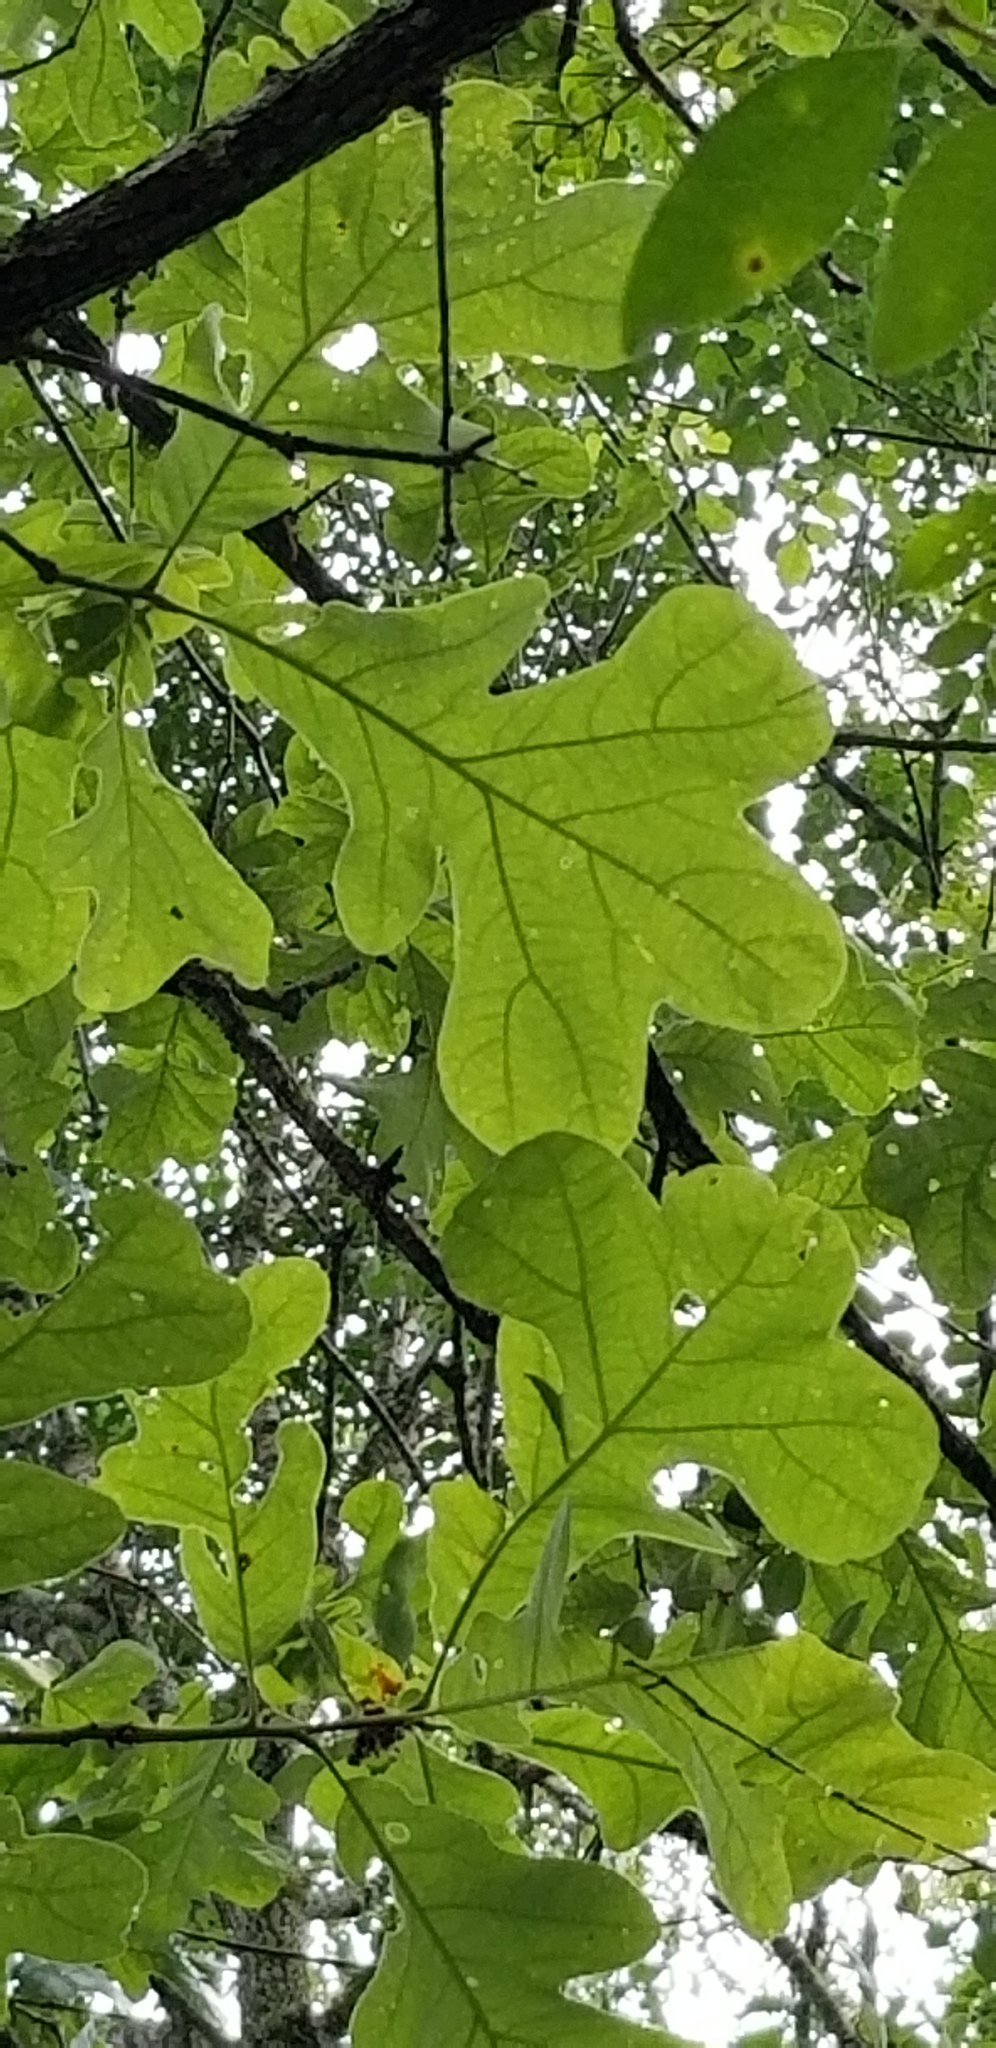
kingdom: Plantae
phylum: Tracheophyta
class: Magnoliopsida
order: Fagales
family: Fagaceae
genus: Quercus
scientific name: Quercus stellata
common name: Post oak
